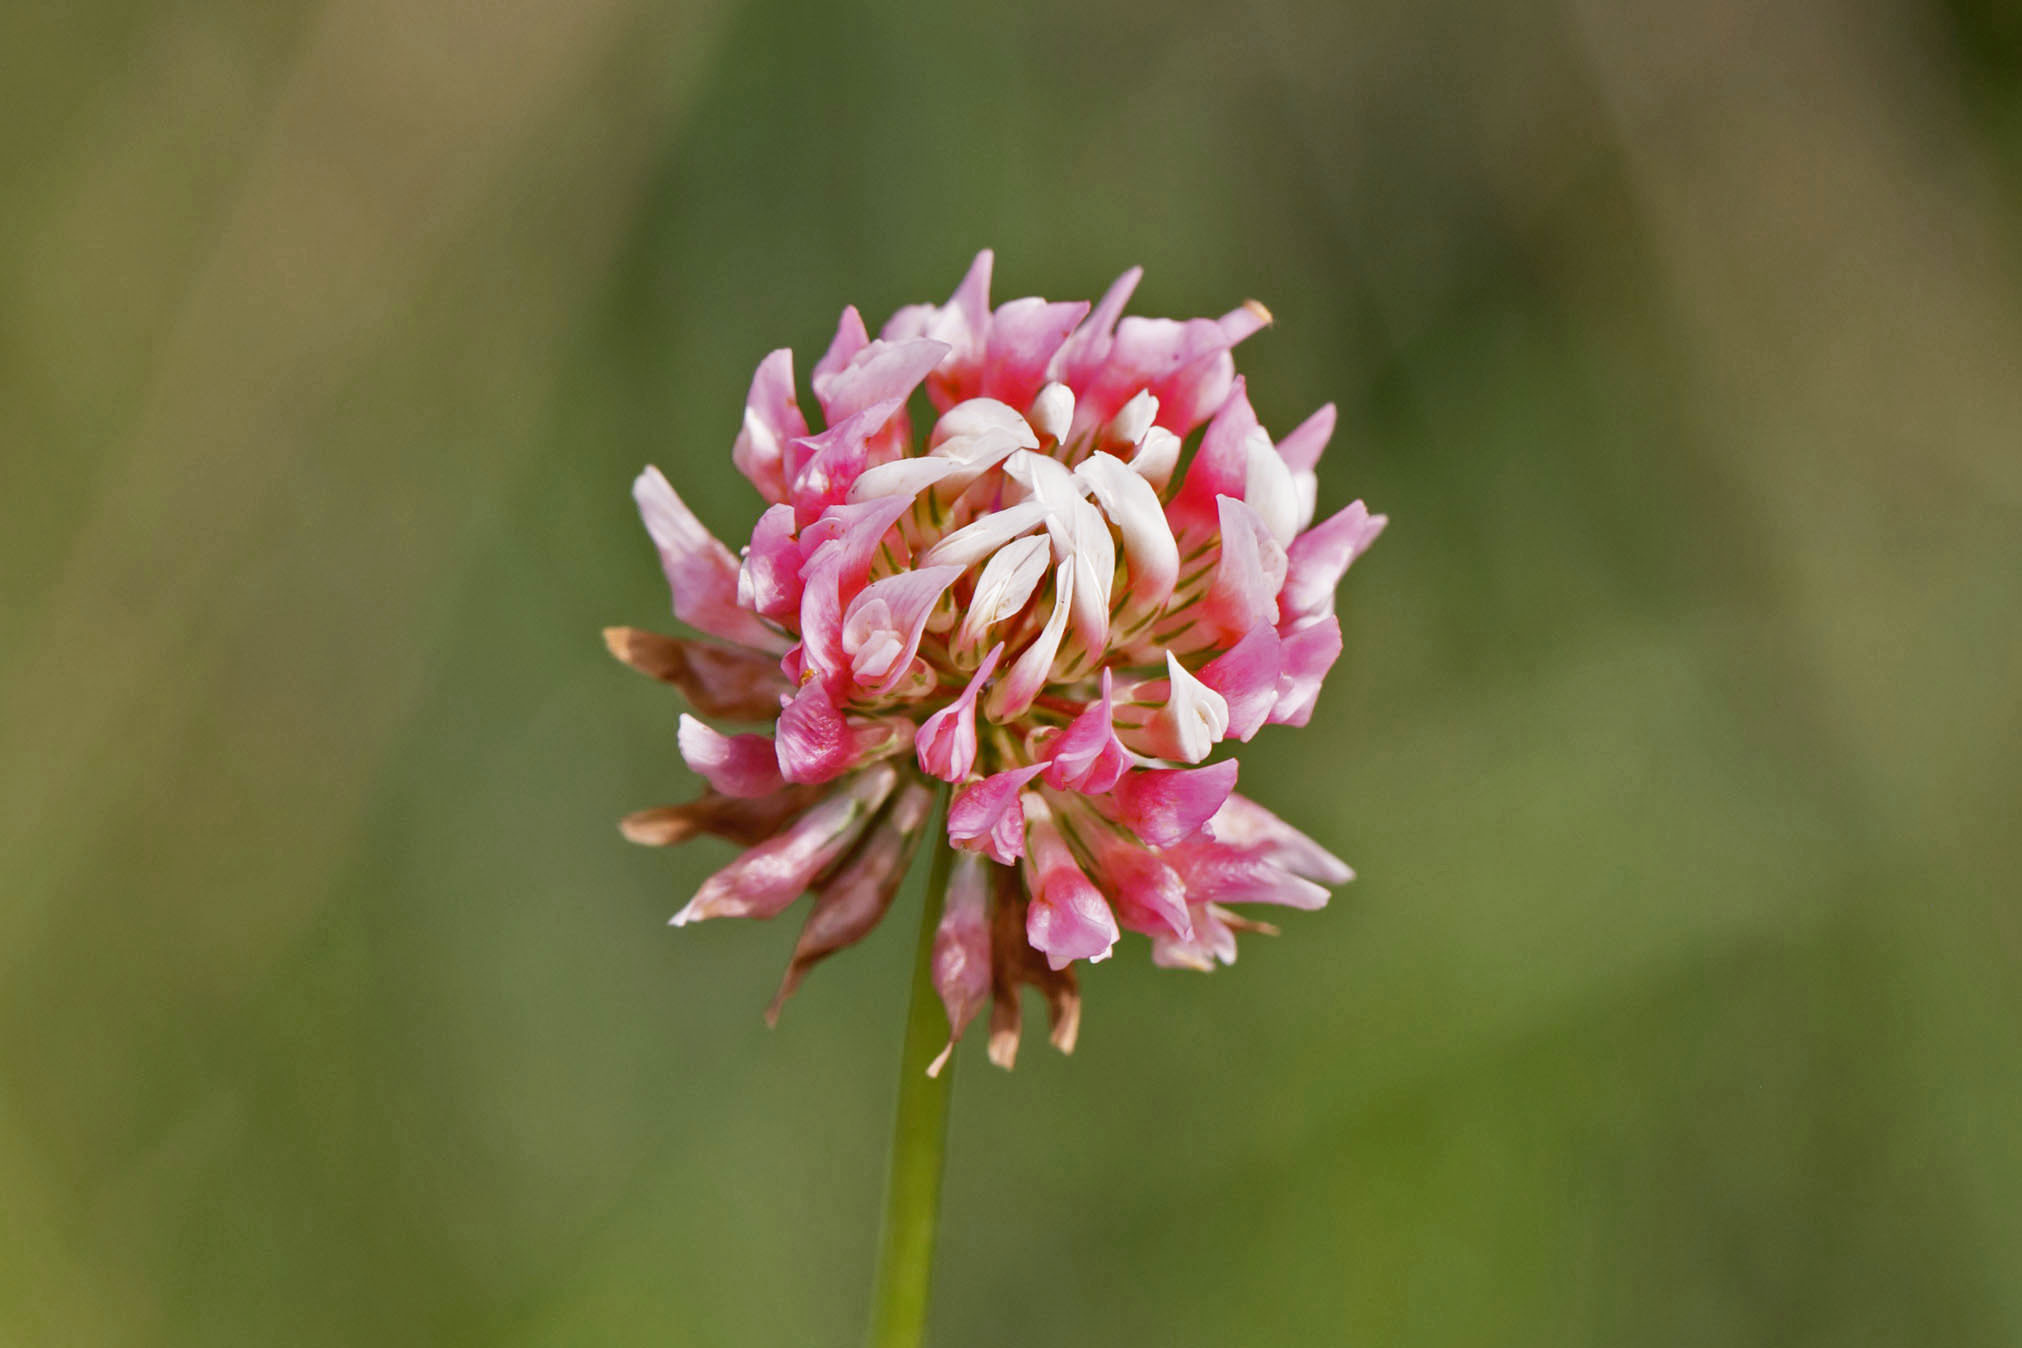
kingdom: Plantae
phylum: Tracheophyta
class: Magnoliopsida
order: Fabales
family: Fabaceae
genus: Trifolium
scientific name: Trifolium hybridum
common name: Alsike clover
